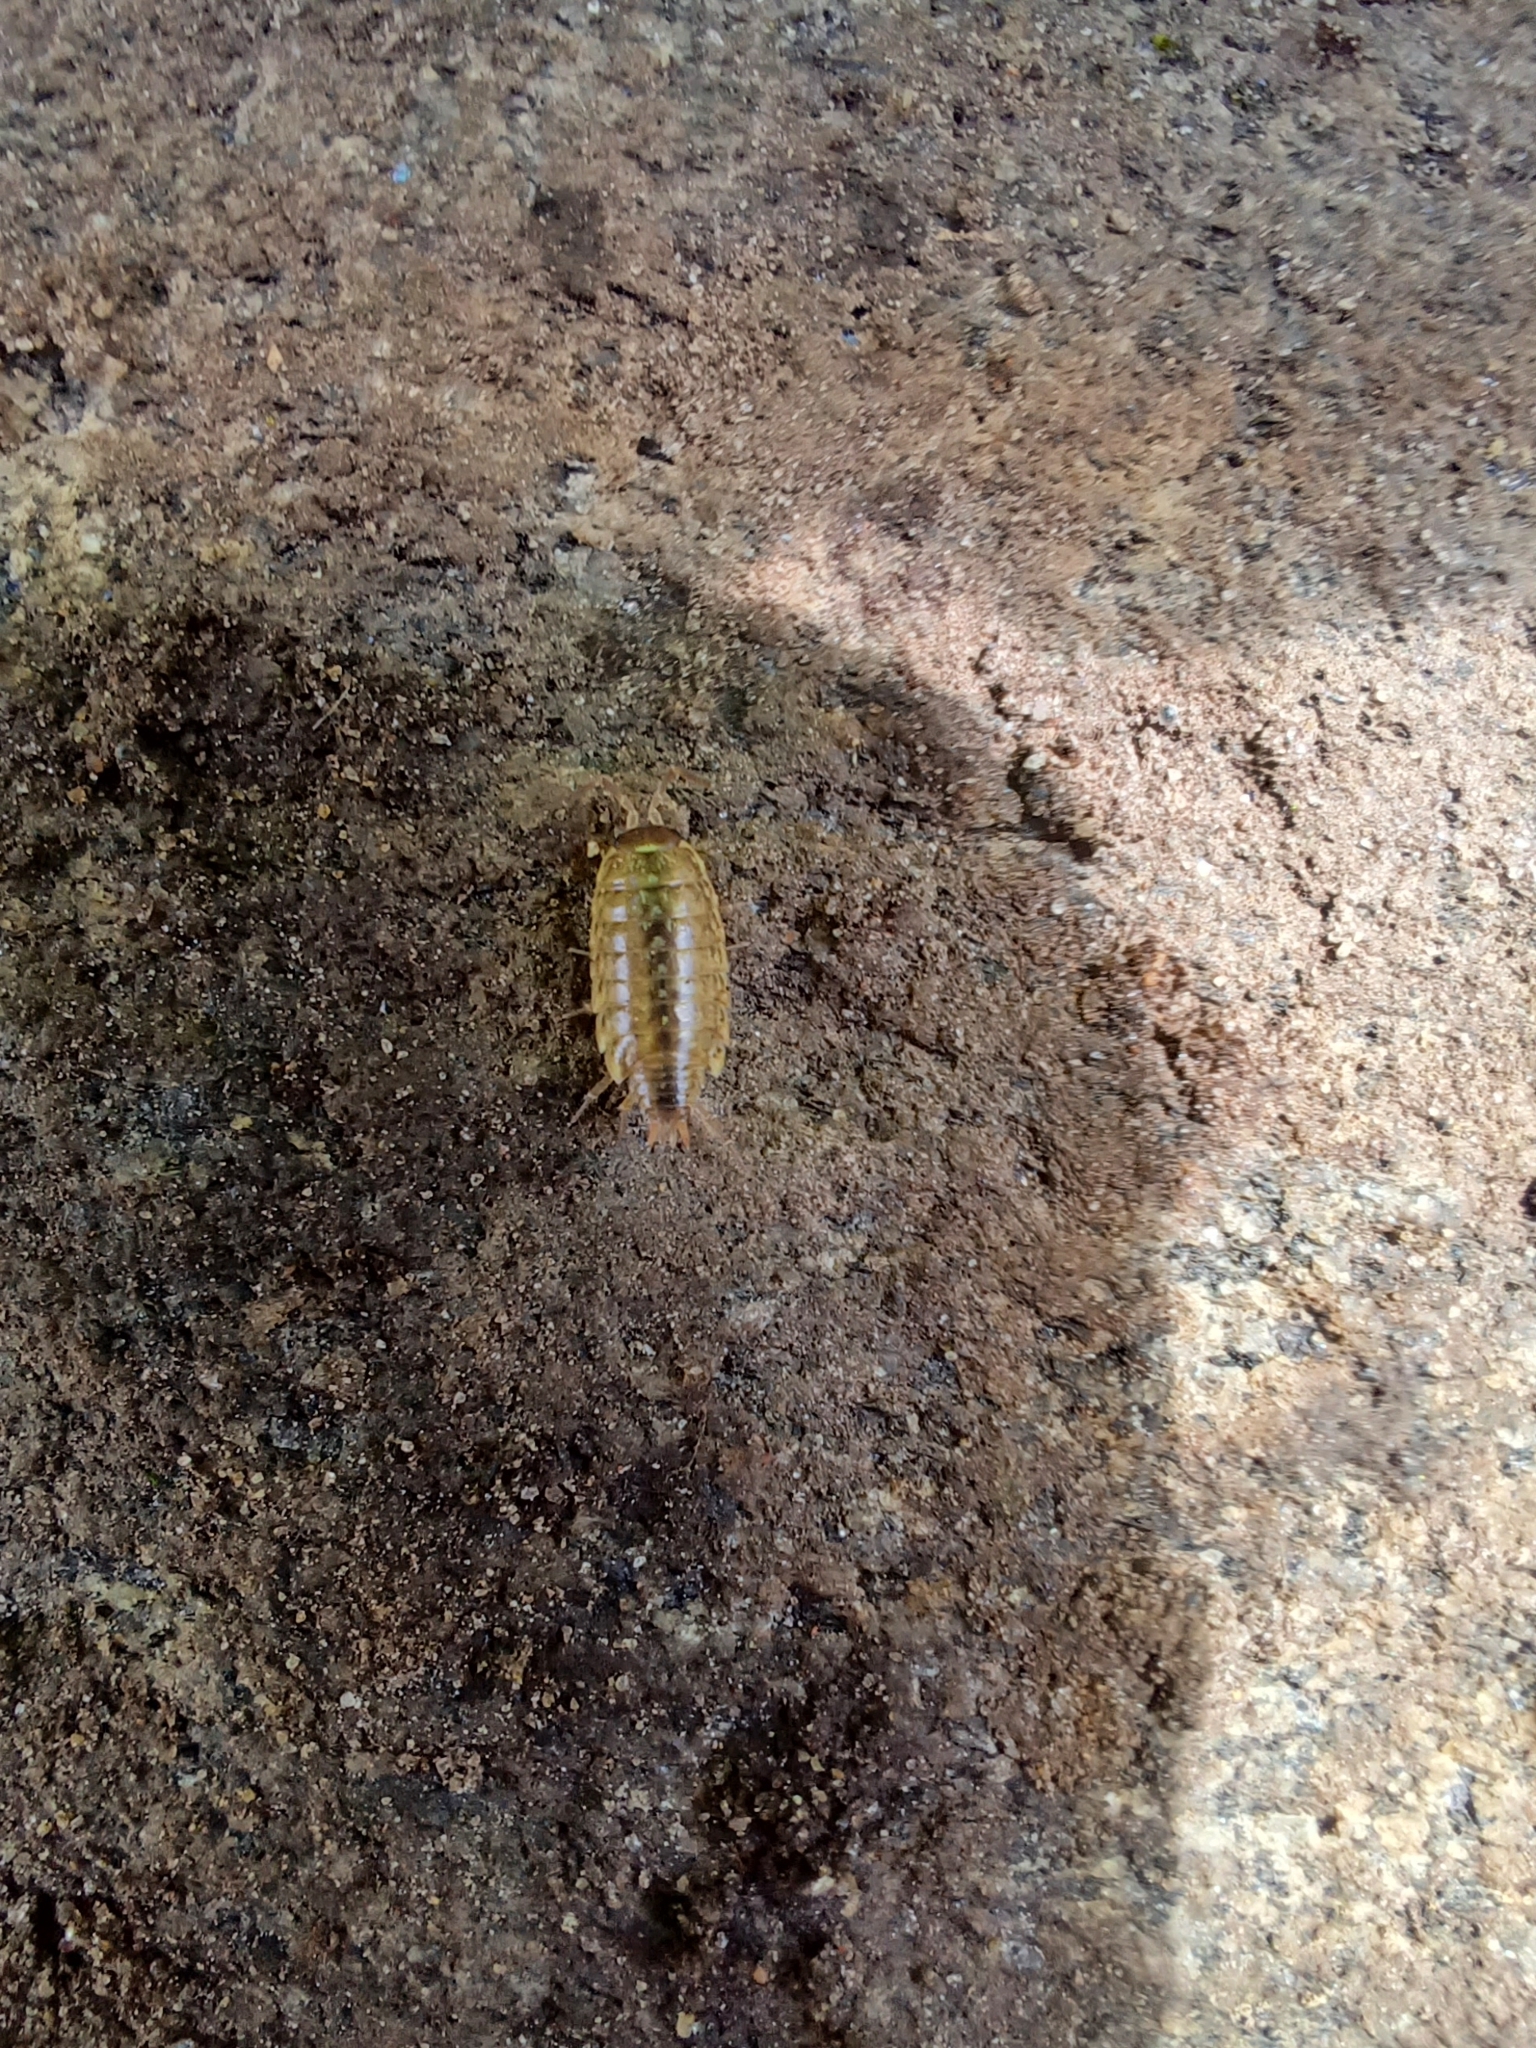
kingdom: Animalia
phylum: Arthropoda
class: Malacostraca
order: Isopoda
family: Philosciidae
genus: Philoscia
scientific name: Philoscia muscorum
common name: Common striped woodlouse
